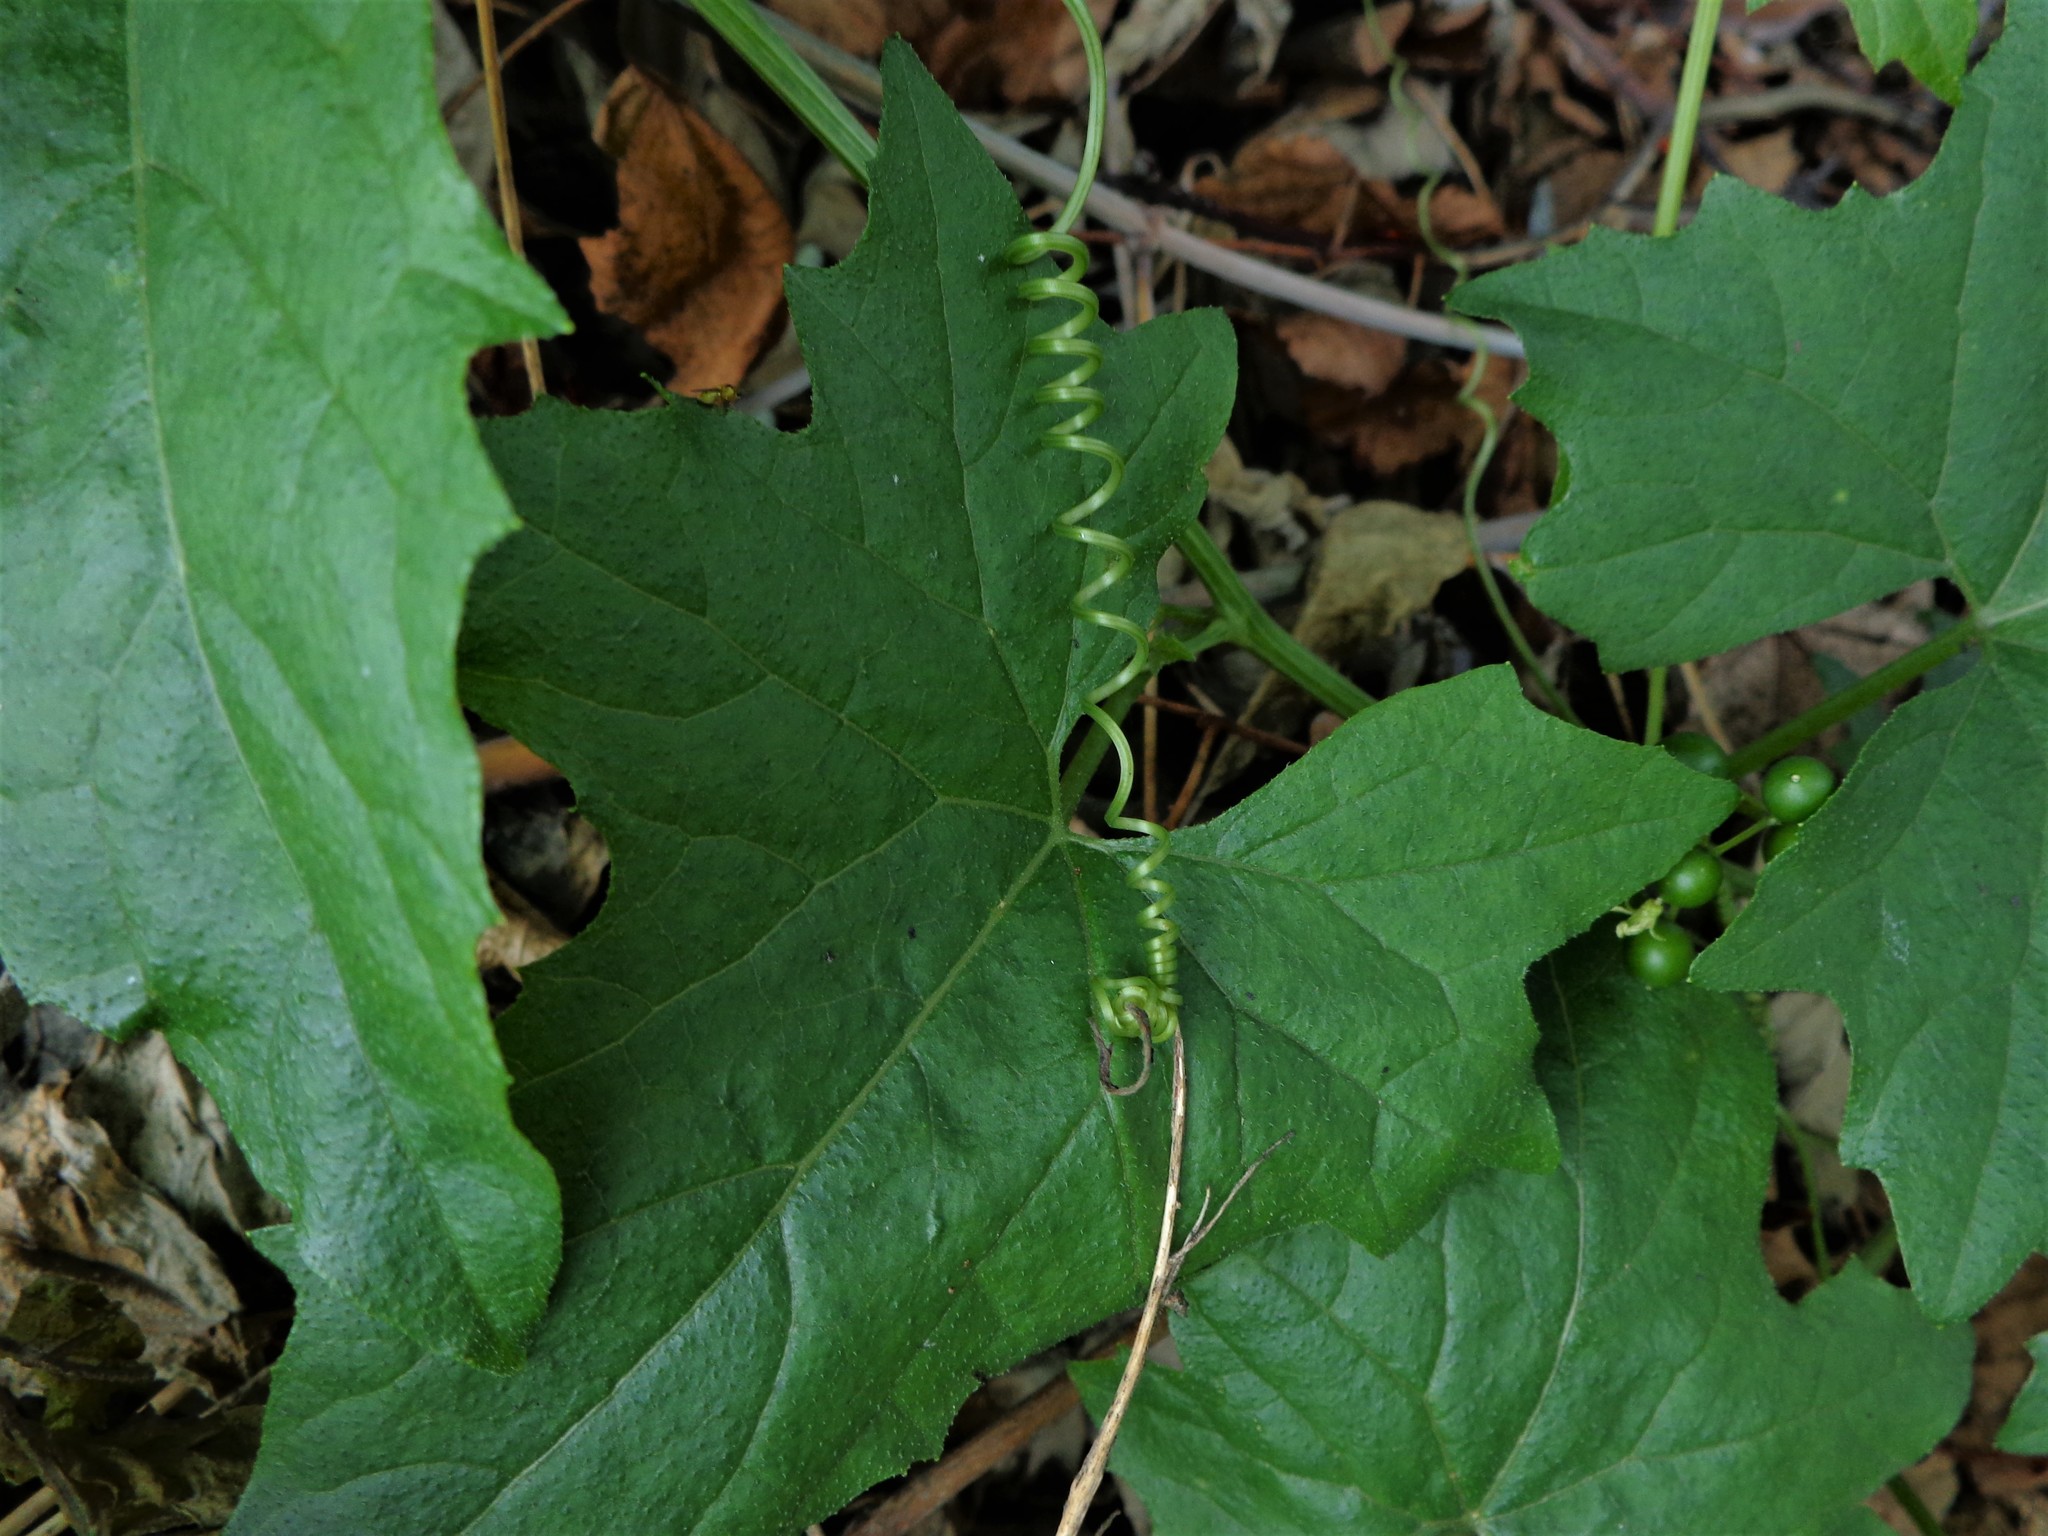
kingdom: Plantae
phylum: Tracheophyta
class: Magnoliopsida
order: Cucurbitales
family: Cucurbitaceae
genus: Bryonia
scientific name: Bryonia alba
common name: White bryony
